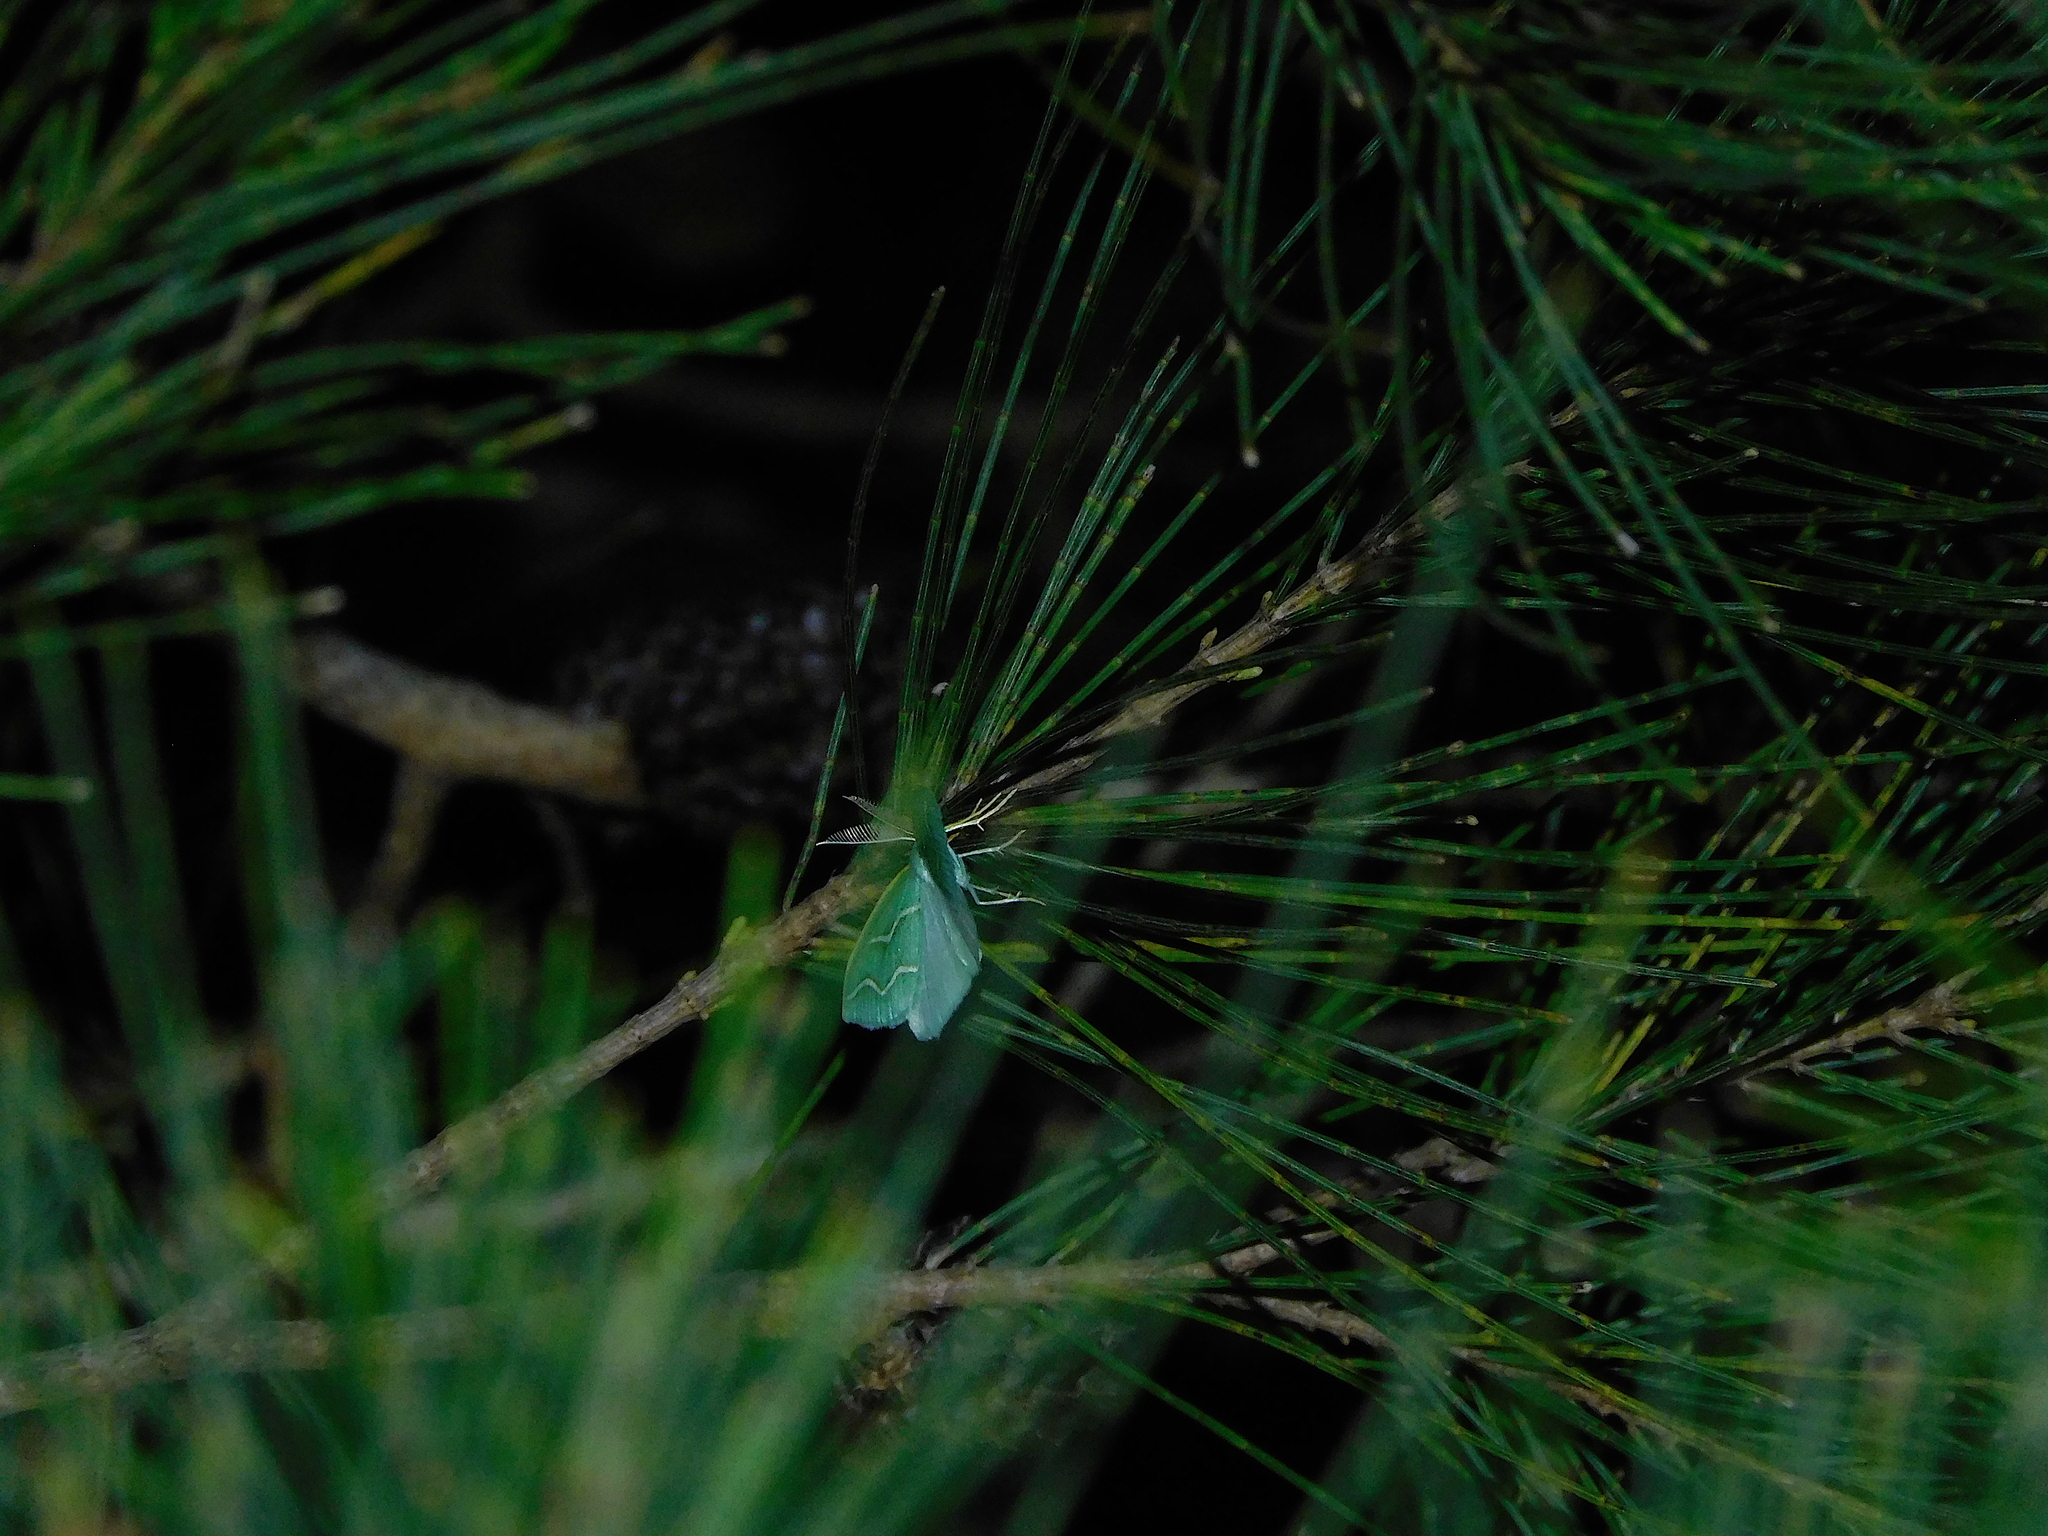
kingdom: Animalia
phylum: Arthropoda
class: Insecta
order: Lepidoptera
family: Geometridae
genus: Euloxia
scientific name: Euloxia meandraria
